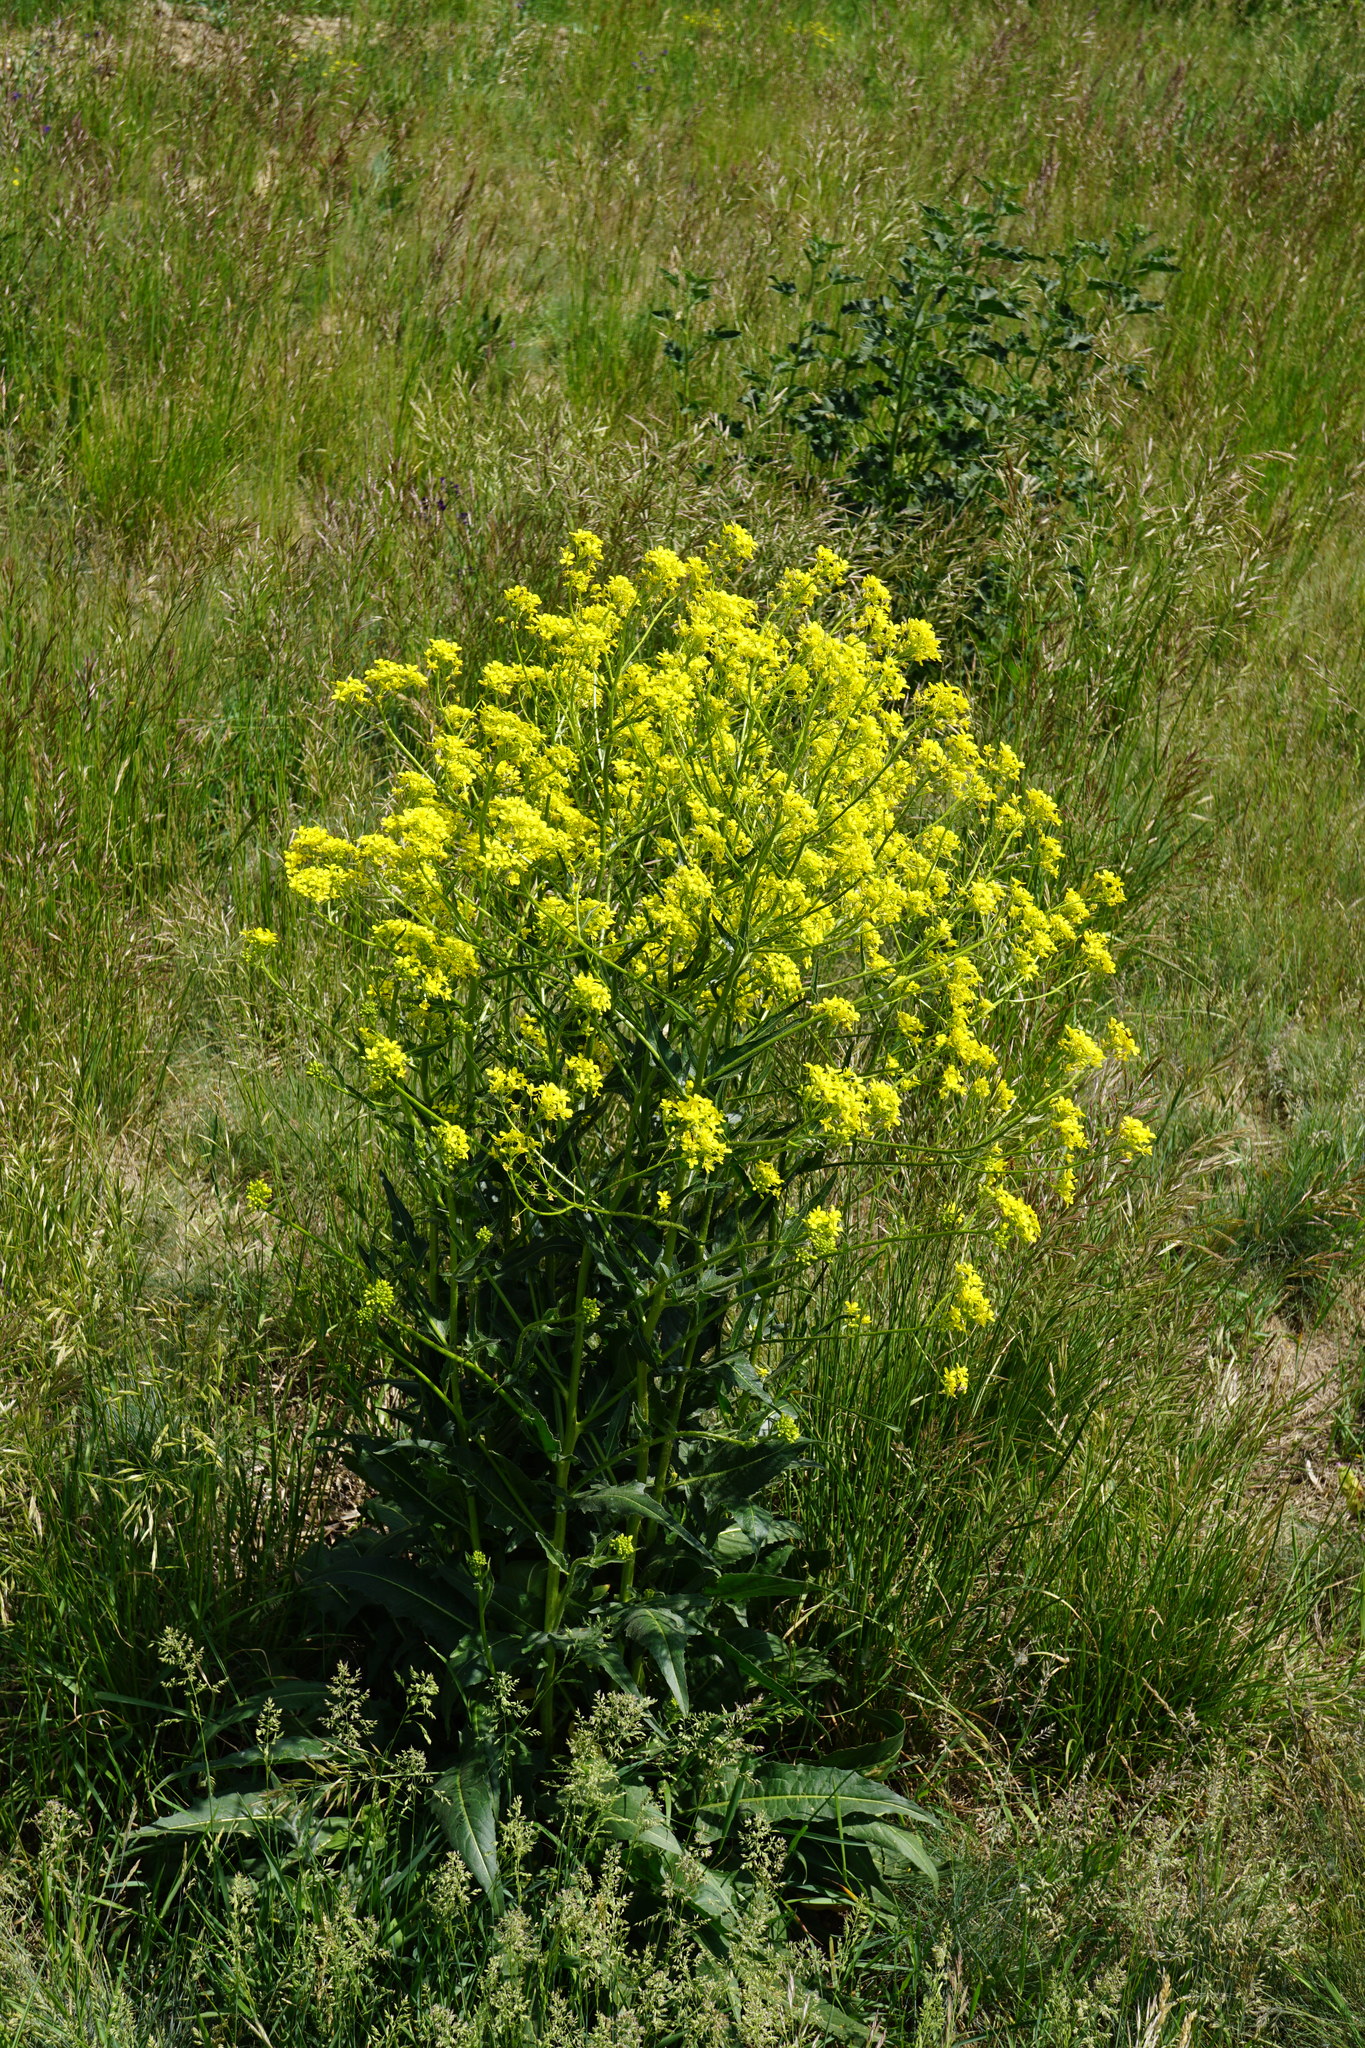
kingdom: Plantae
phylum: Tracheophyta
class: Magnoliopsida
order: Brassicales
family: Brassicaceae
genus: Bunias
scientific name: Bunias orientalis
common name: Warty-cabbage
